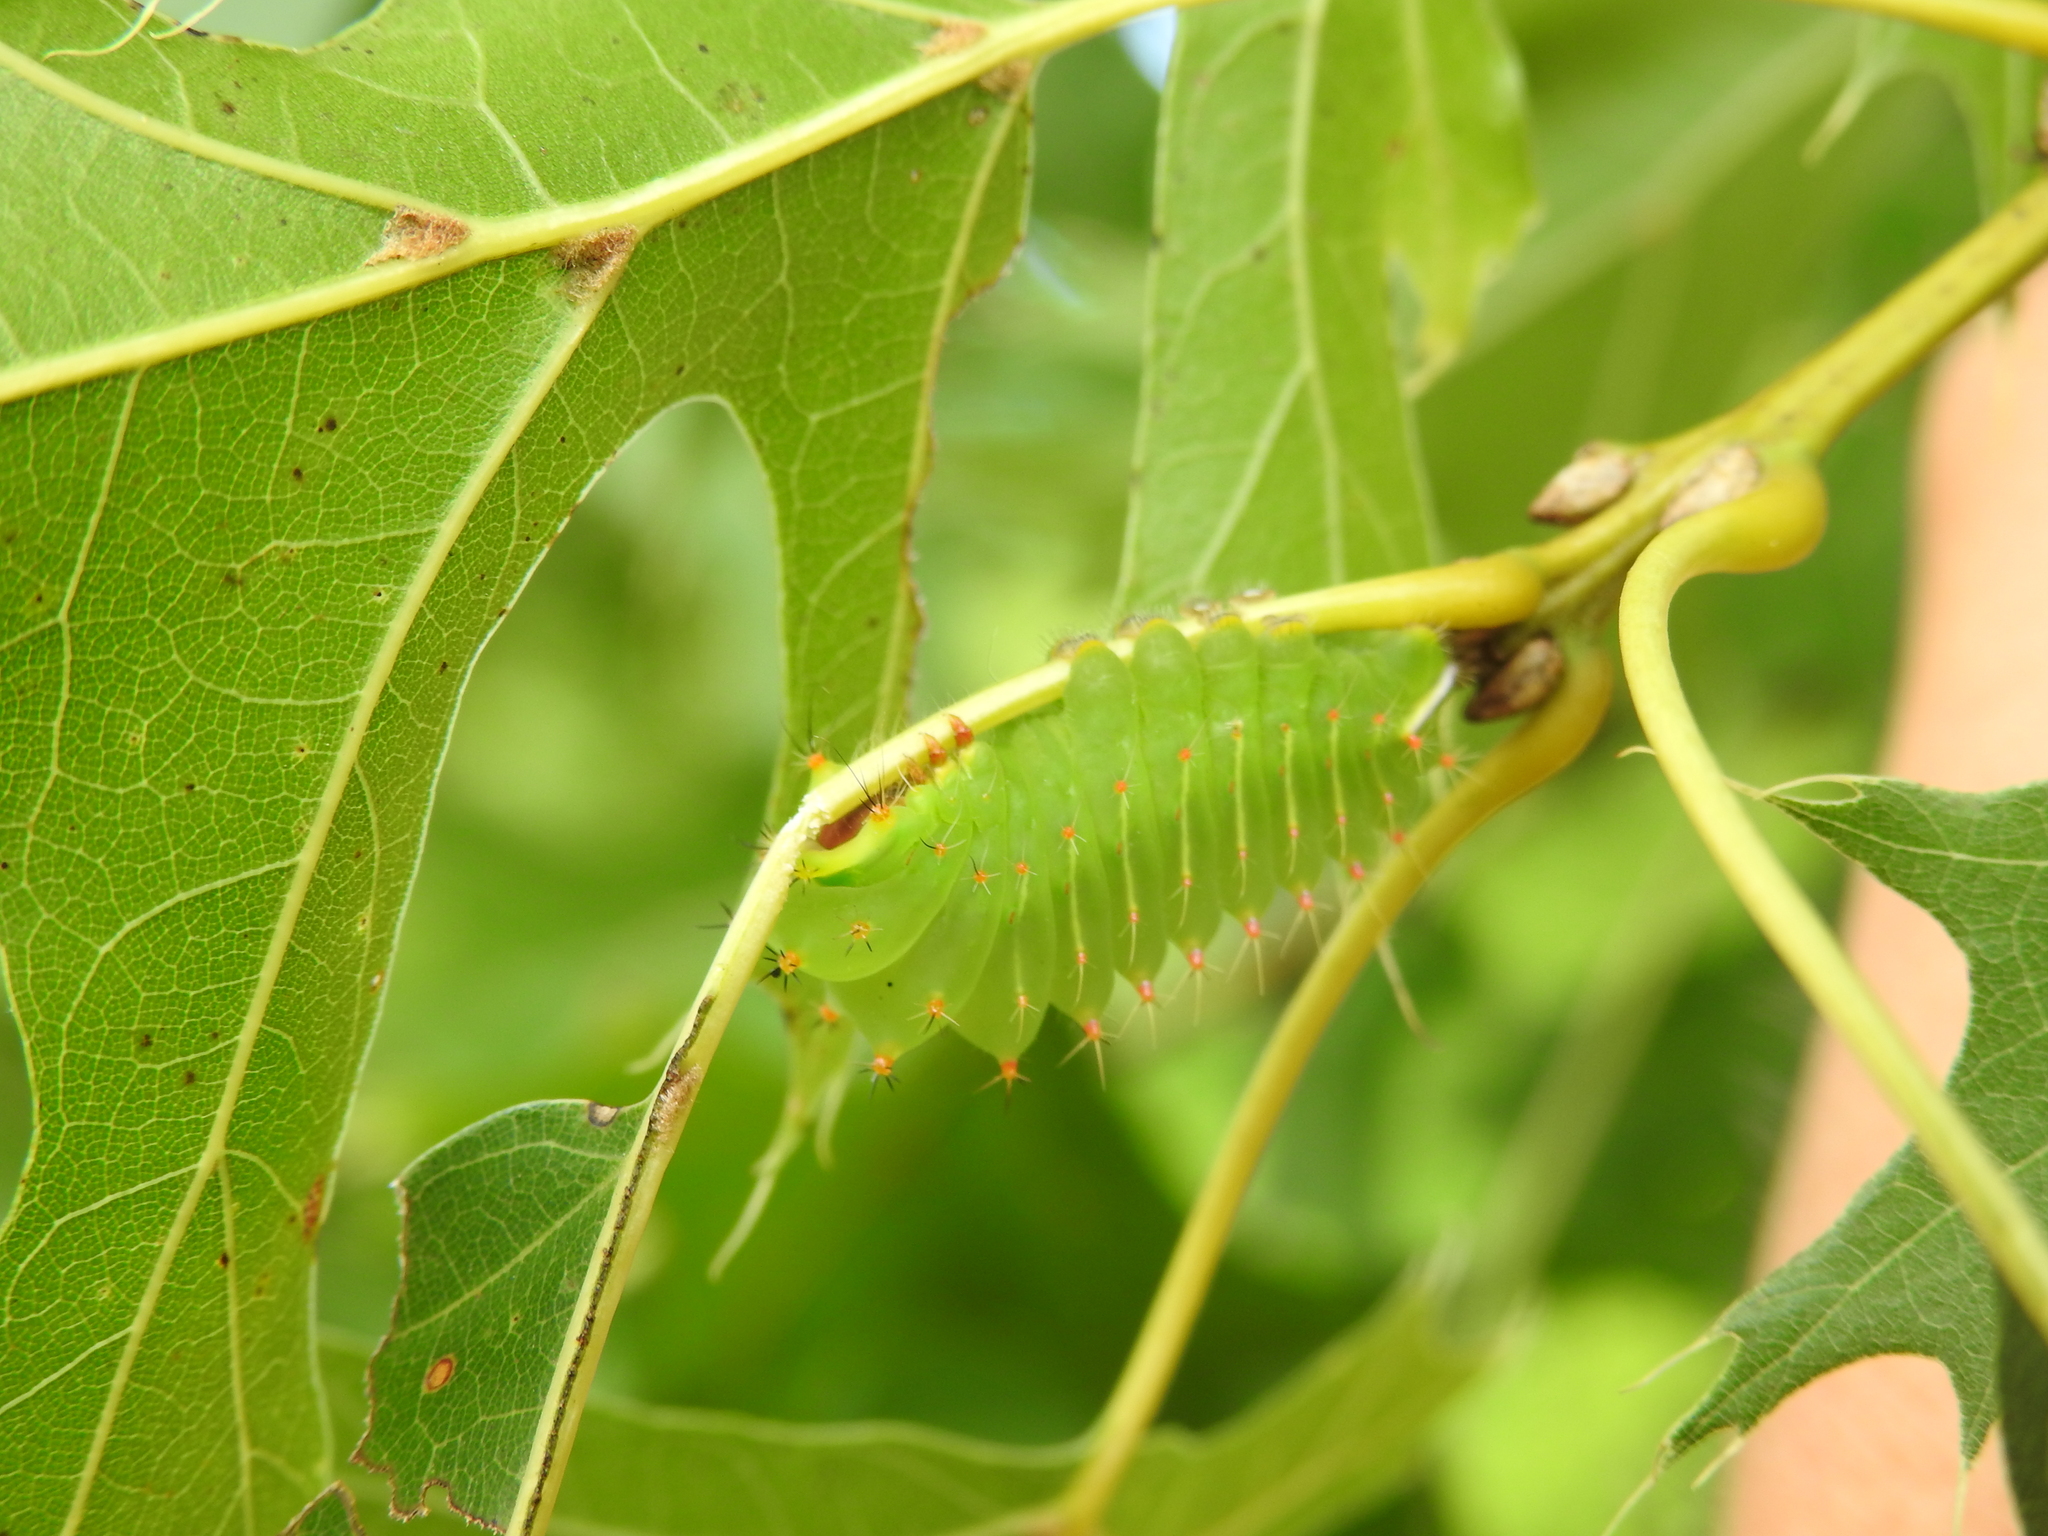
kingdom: Animalia
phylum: Arthropoda
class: Insecta
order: Lepidoptera
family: Saturniidae
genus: Antheraea
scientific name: Antheraea polyphemus
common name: Polyphemus moth
